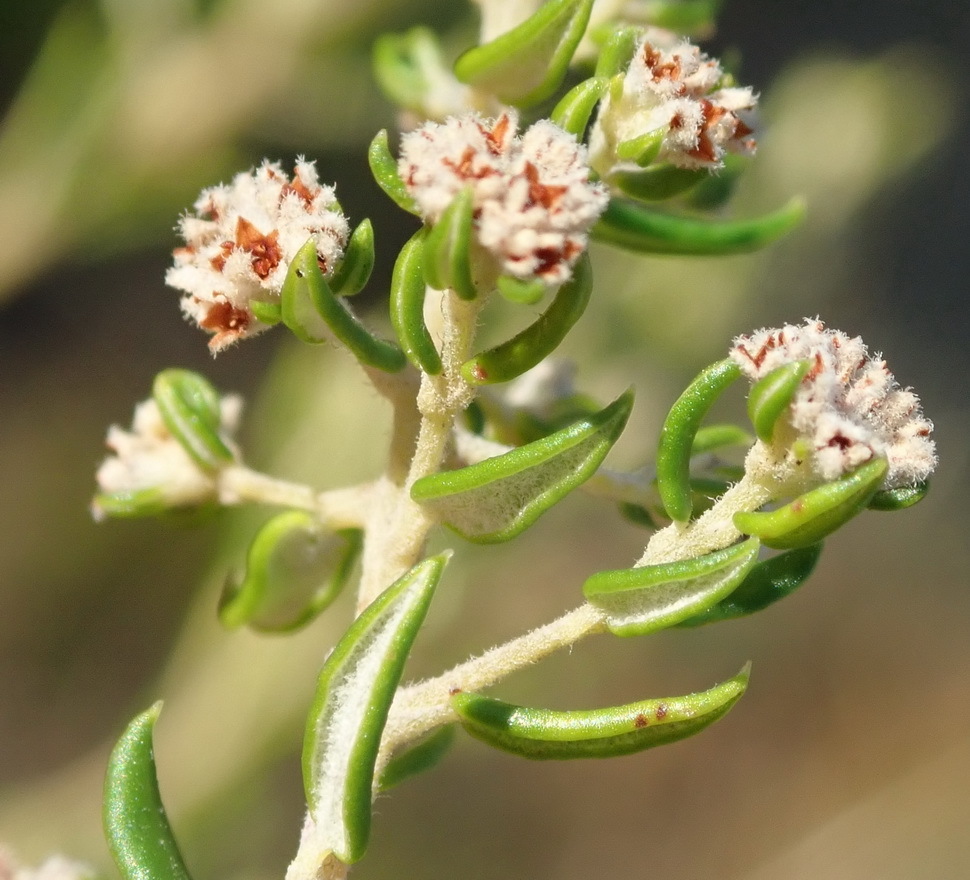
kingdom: Plantae
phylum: Tracheophyta
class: Magnoliopsida
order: Rosales
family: Rhamnaceae
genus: Phylica
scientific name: Phylica purpurea
